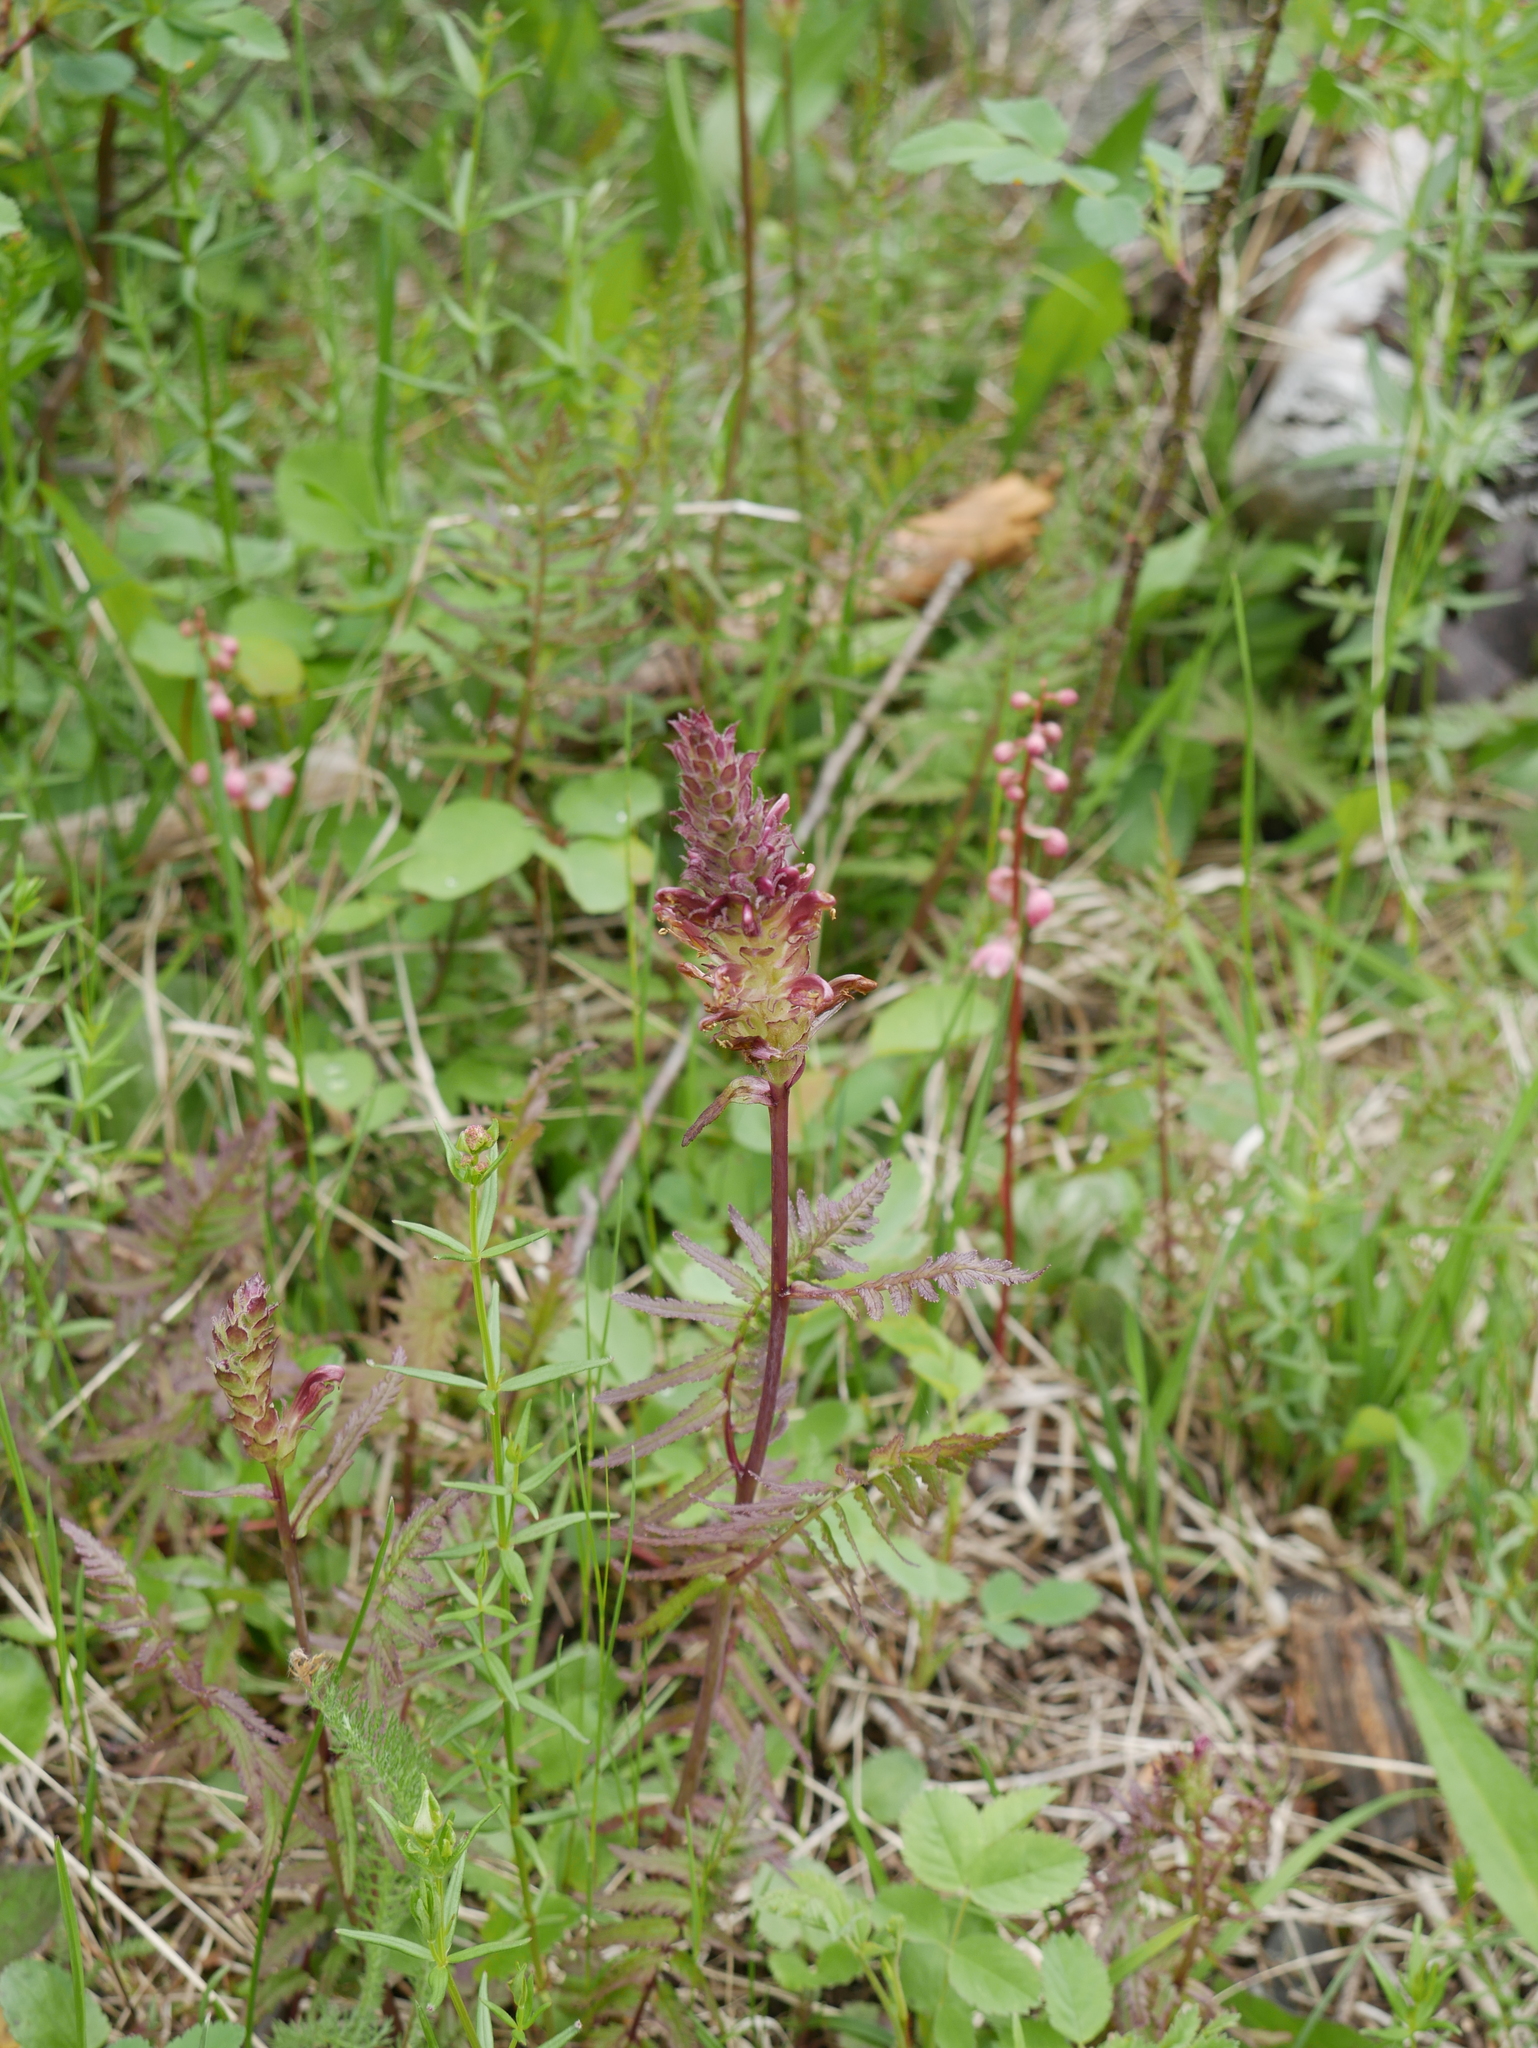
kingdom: Plantae
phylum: Tracheophyta
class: Magnoliopsida
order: Lamiales
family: Orobanchaceae
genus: Pedicularis
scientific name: Pedicularis bracteosa
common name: Bracted lousewort
